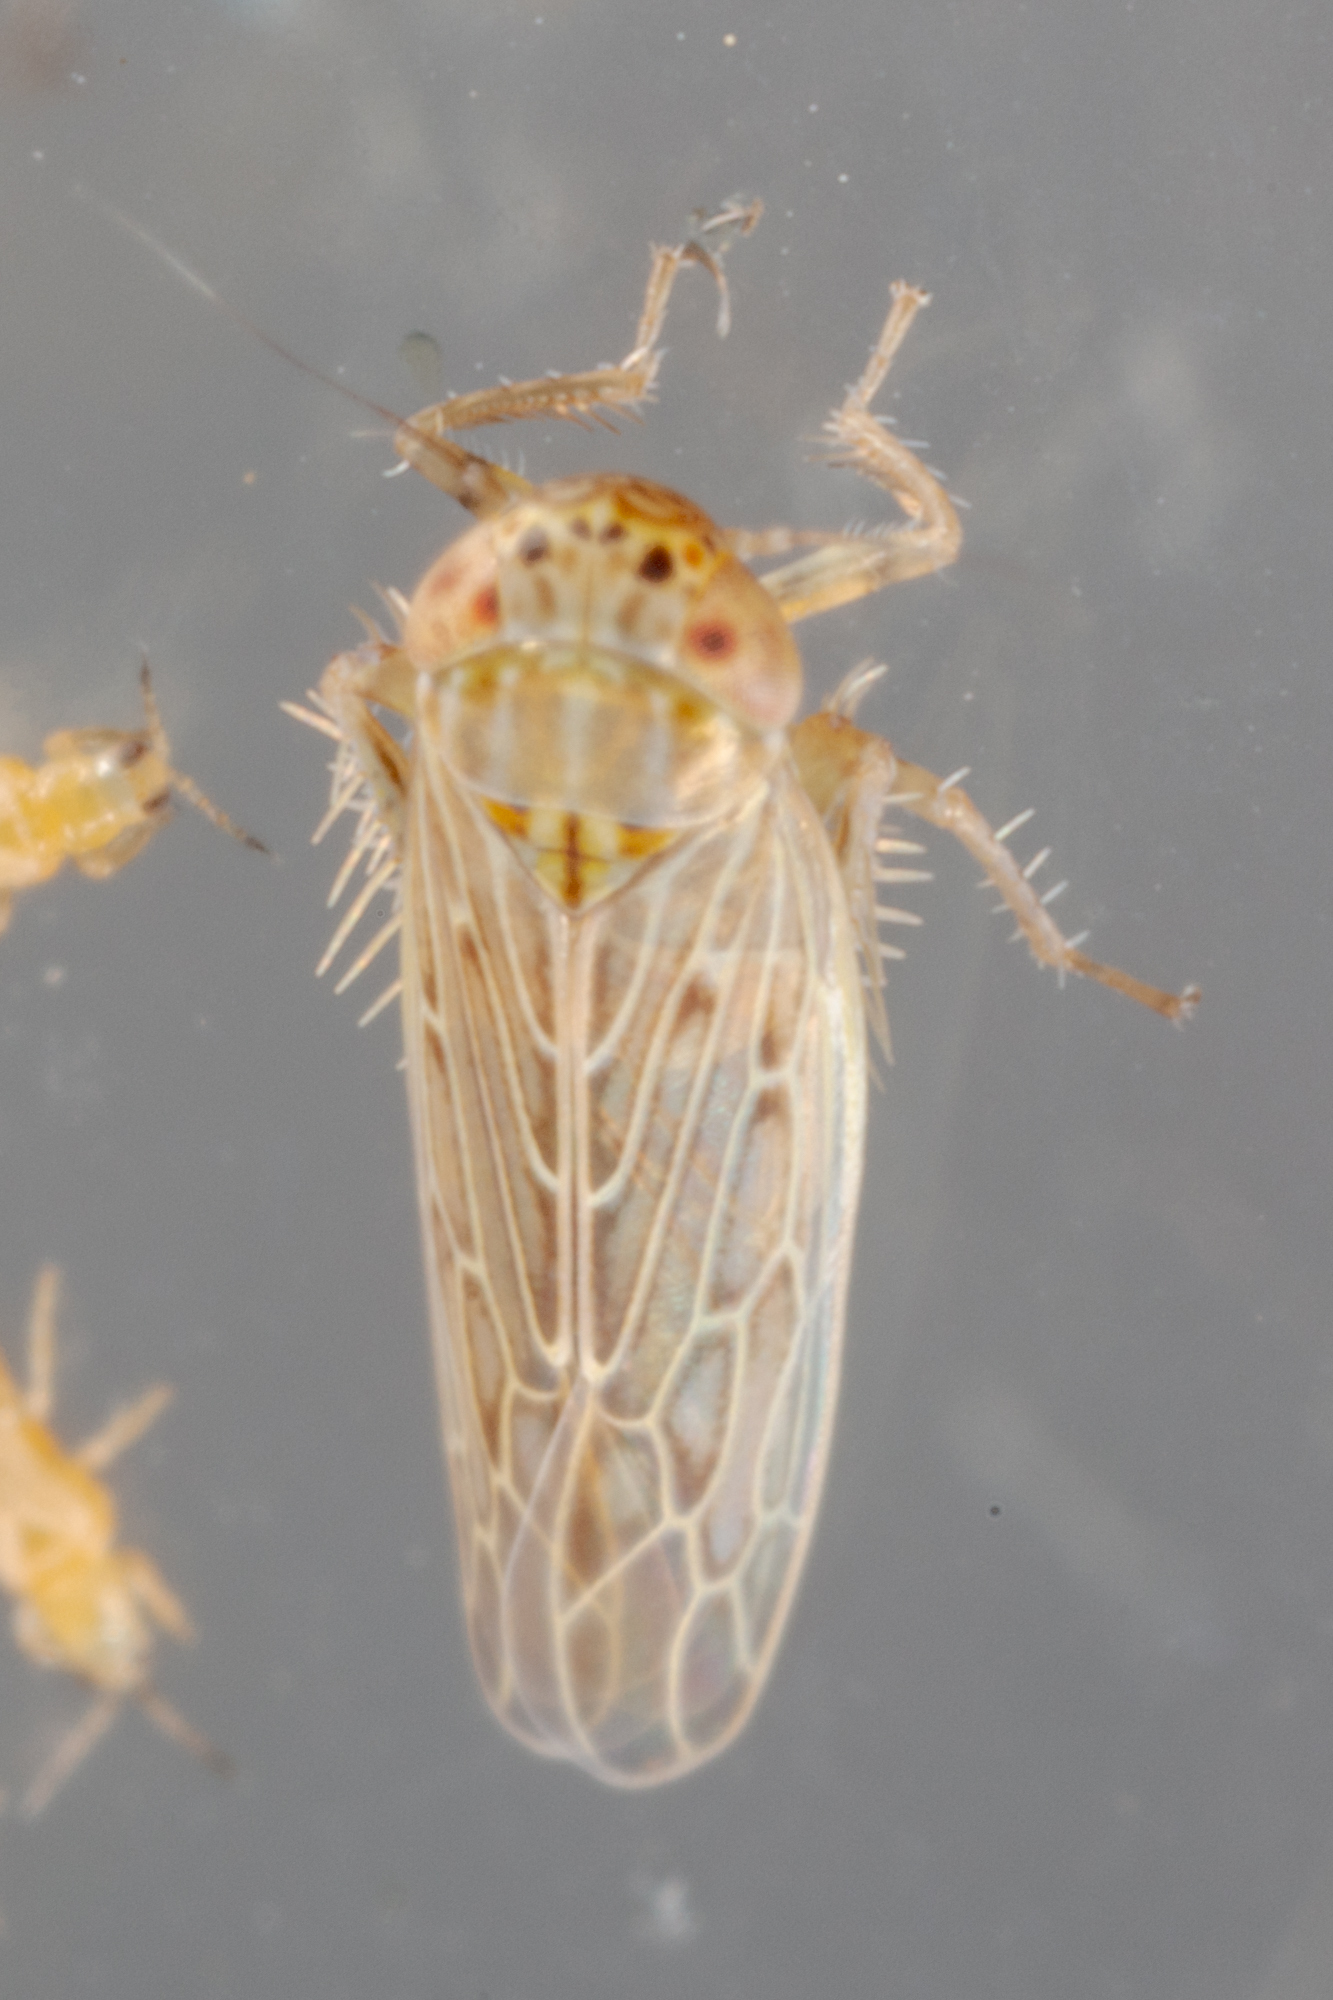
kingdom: Animalia
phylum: Arthropoda
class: Insecta
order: Hemiptera
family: Cicadellidae
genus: Graminella
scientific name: Graminella sonora
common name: Lesser lawn leafhopper
